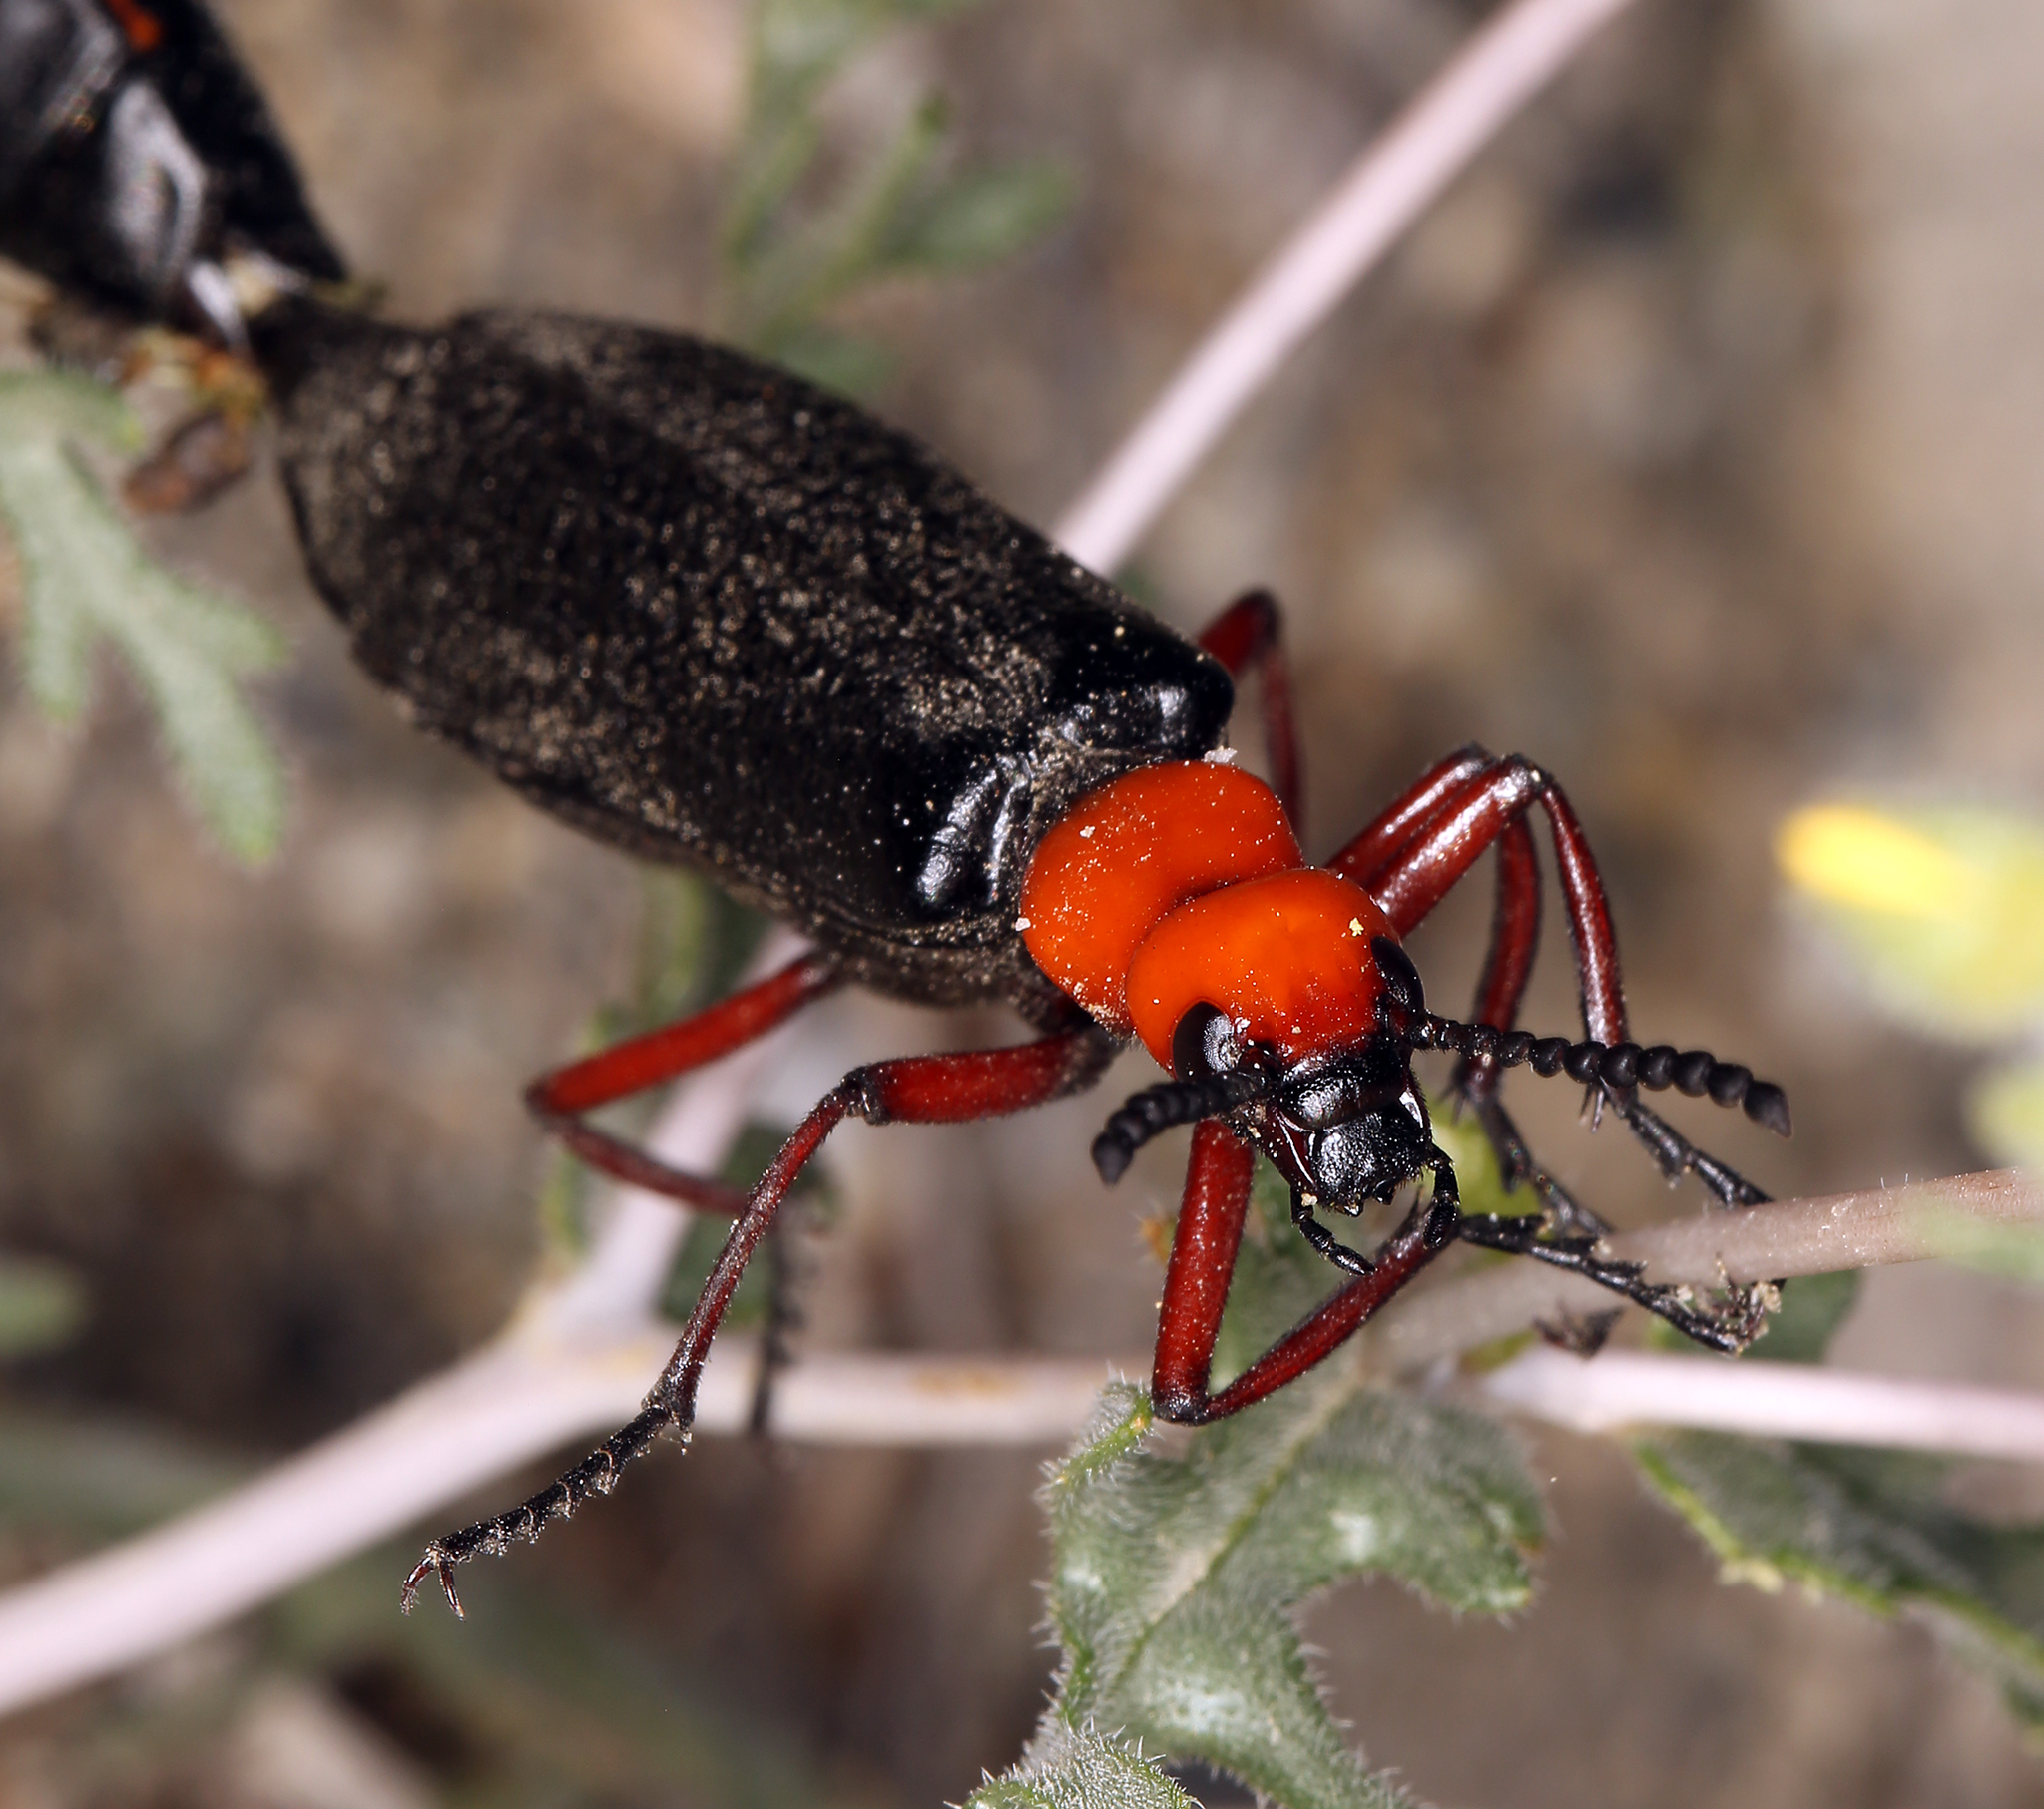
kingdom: Animalia
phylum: Arthropoda
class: Insecta
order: Coleoptera
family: Meloidae
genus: Lytta
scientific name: Lytta magister
